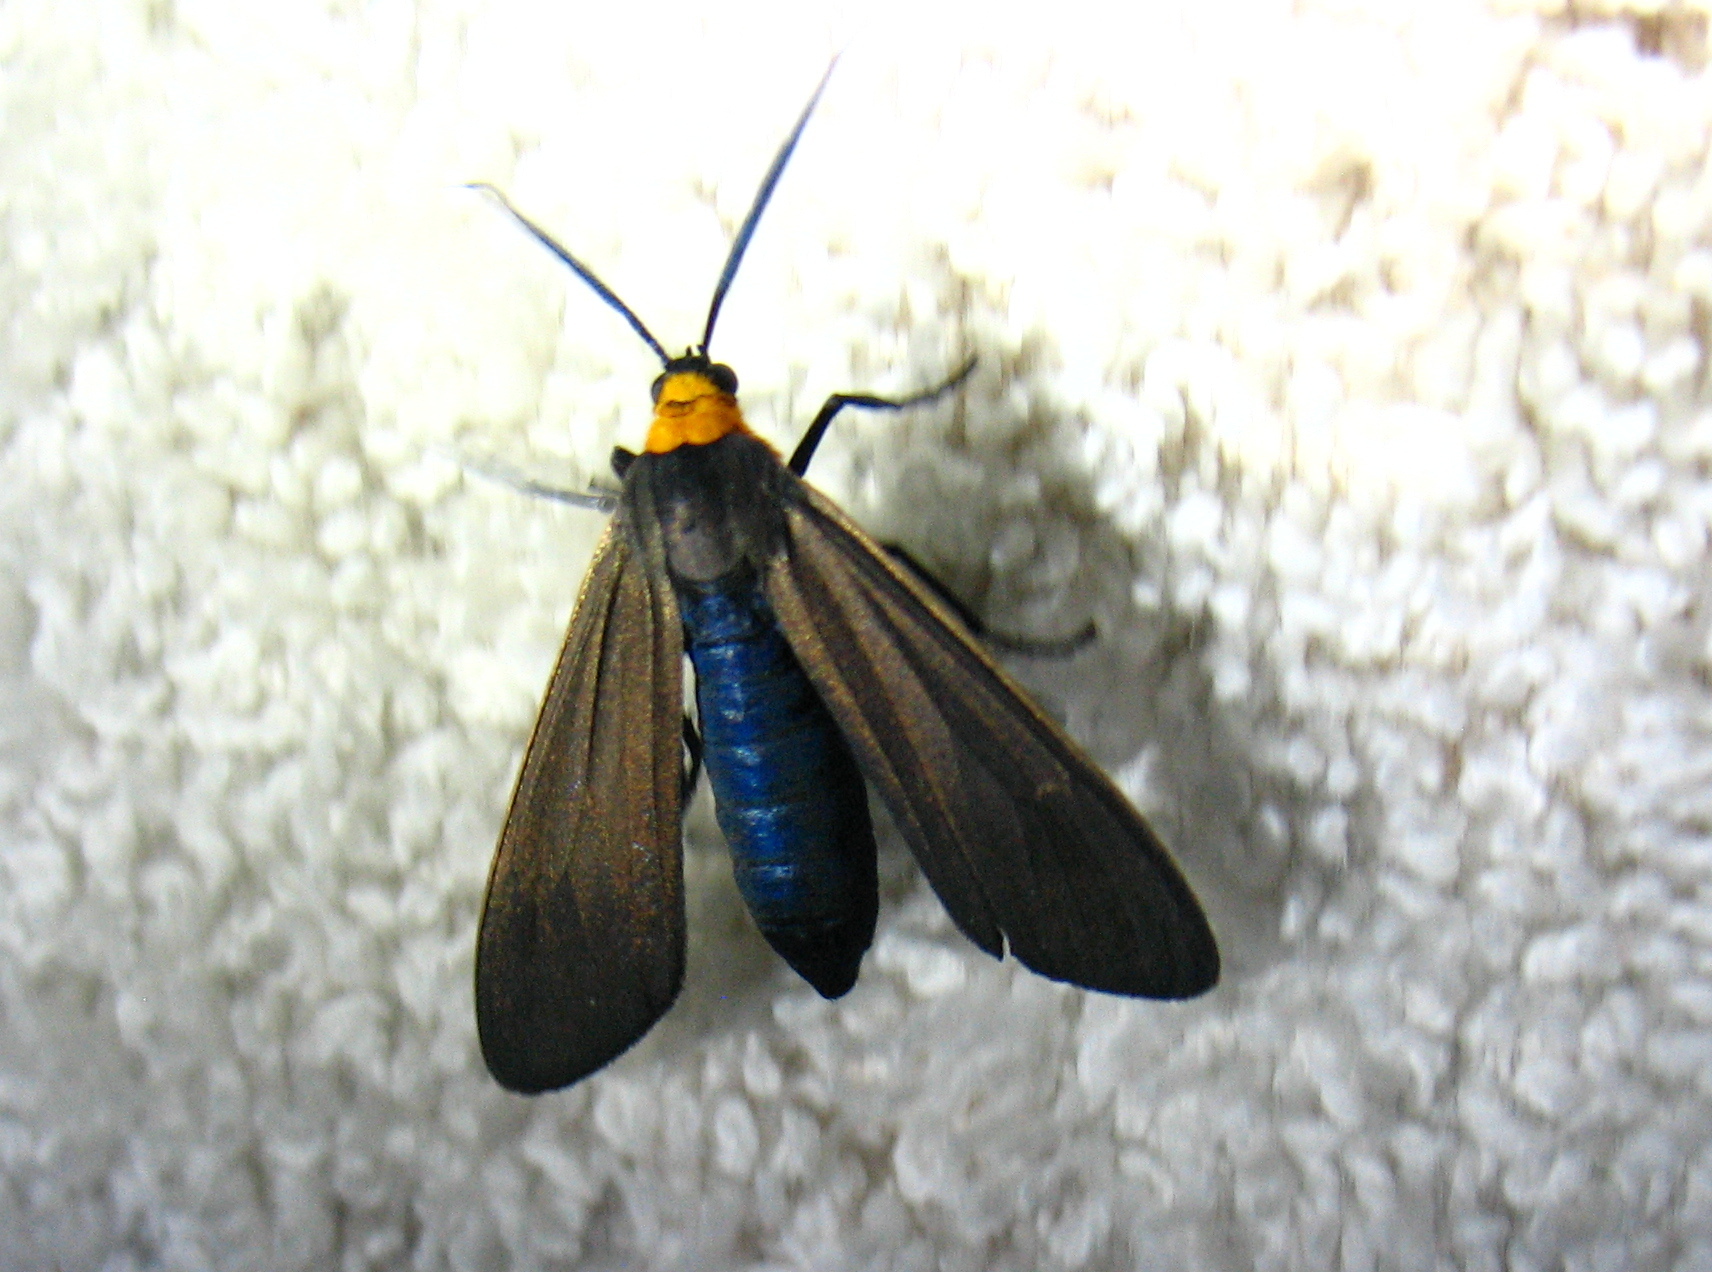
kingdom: Animalia
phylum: Arthropoda
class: Insecta
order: Lepidoptera
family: Erebidae
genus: Cisseps
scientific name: Cisseps fulvicollis
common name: Yellow-collared scape moth
